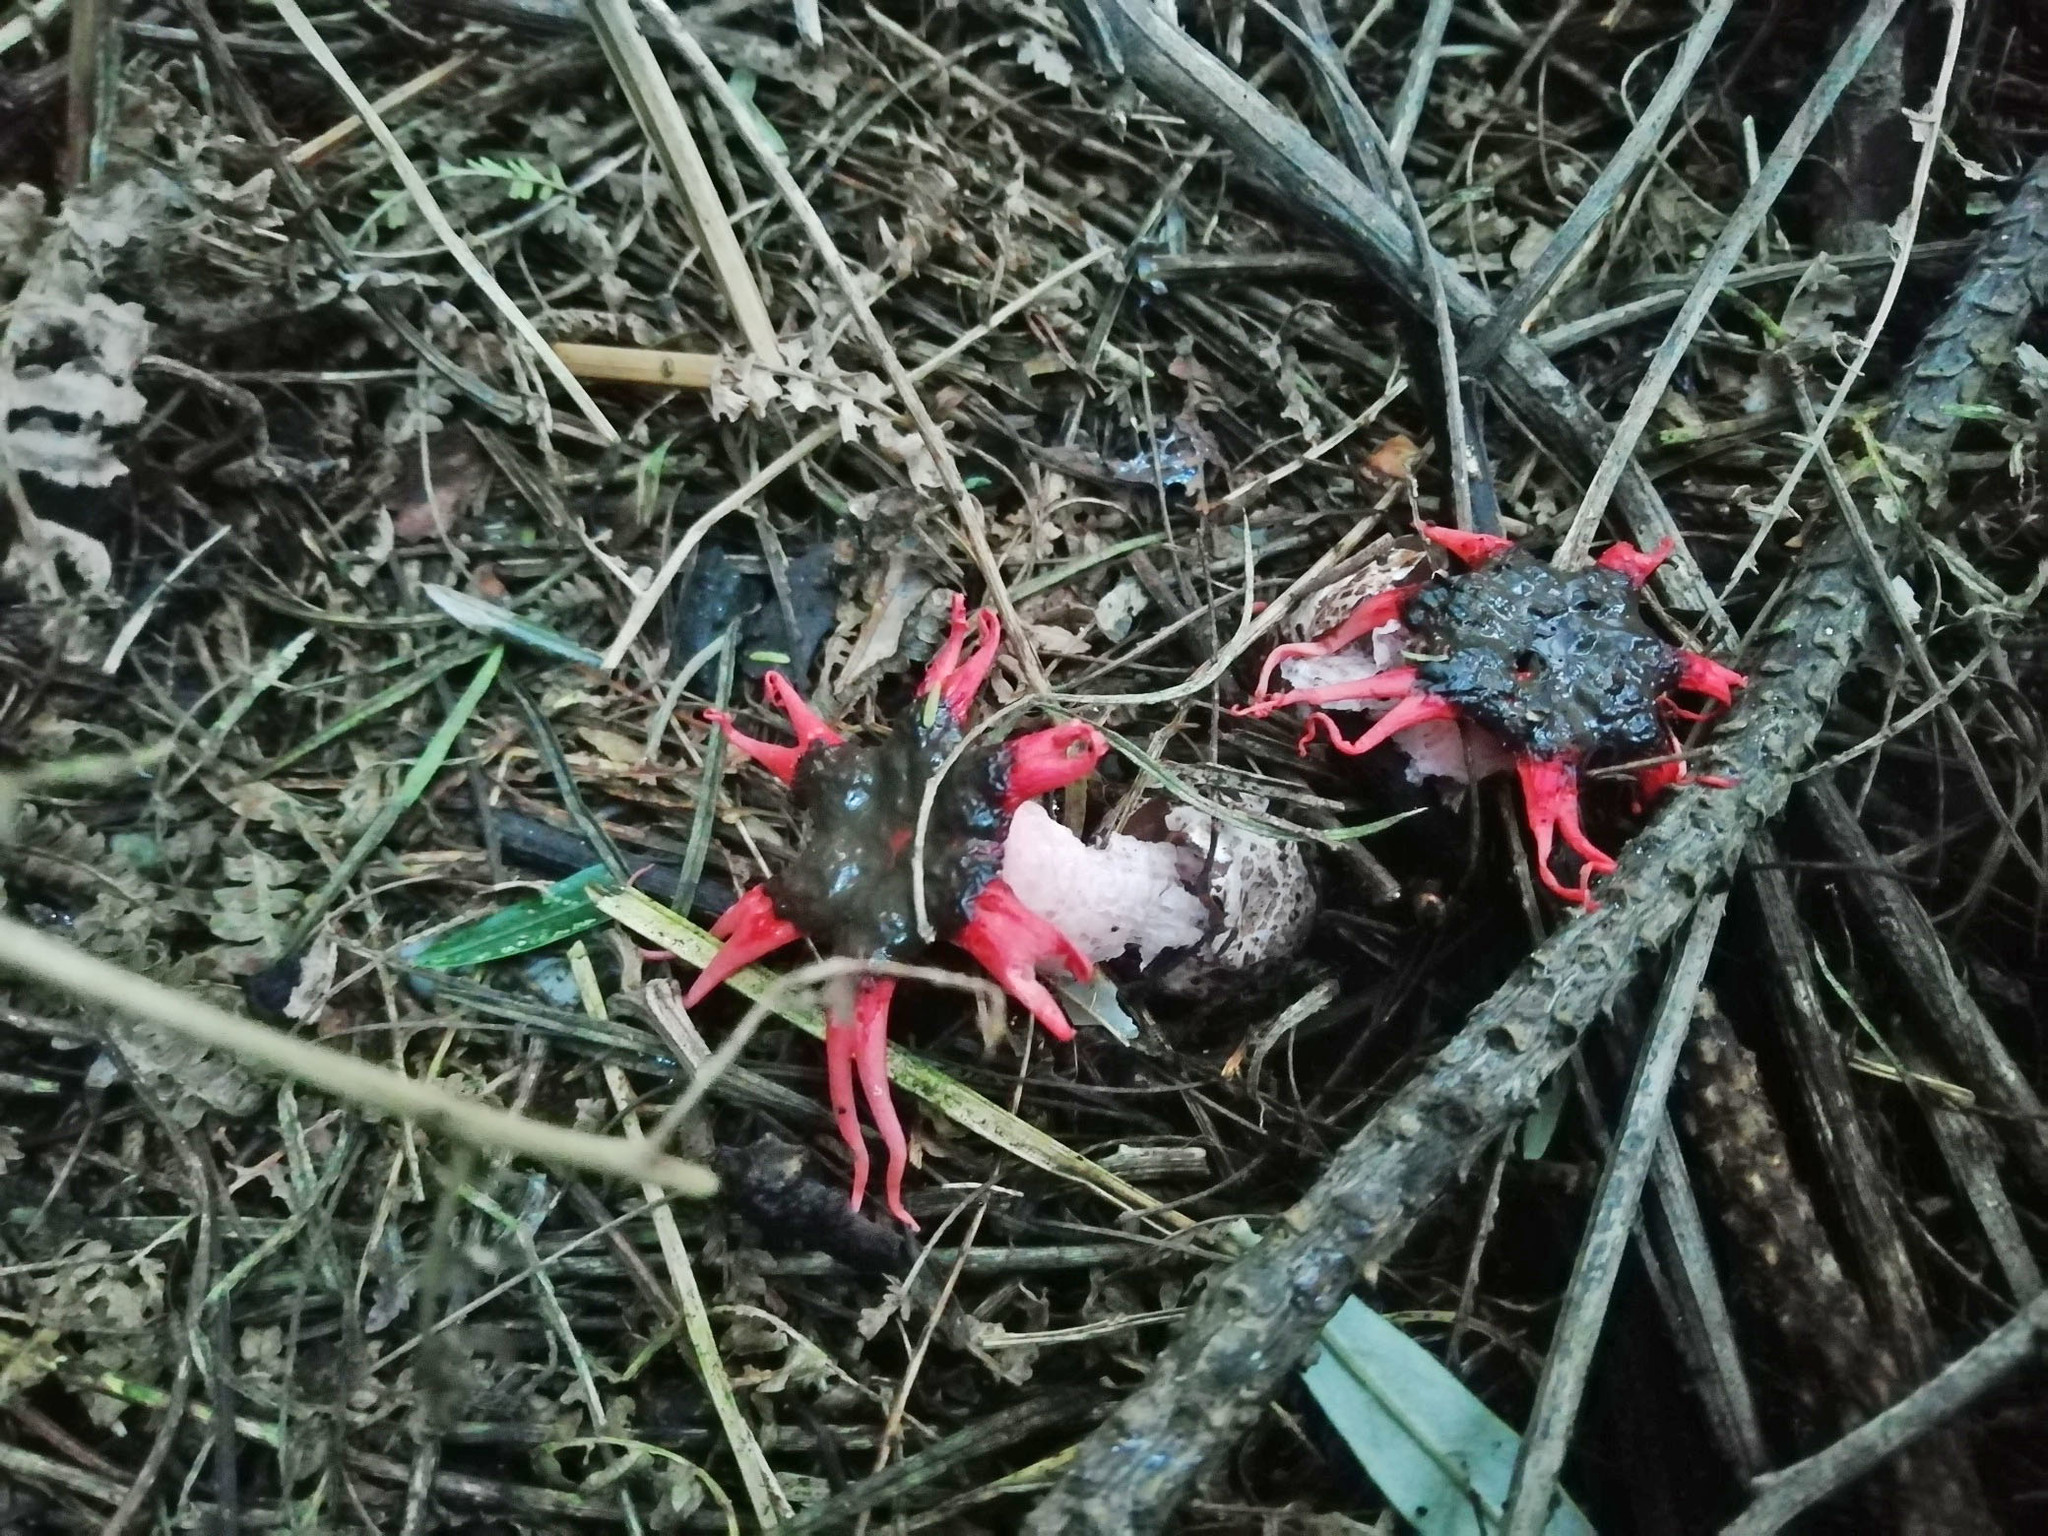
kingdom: Fungi
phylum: Basidiomycota
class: Agaricomycetes
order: Phallales
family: Phallaceae
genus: Aseroe
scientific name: Aseroe rubra
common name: Starfish fungus
